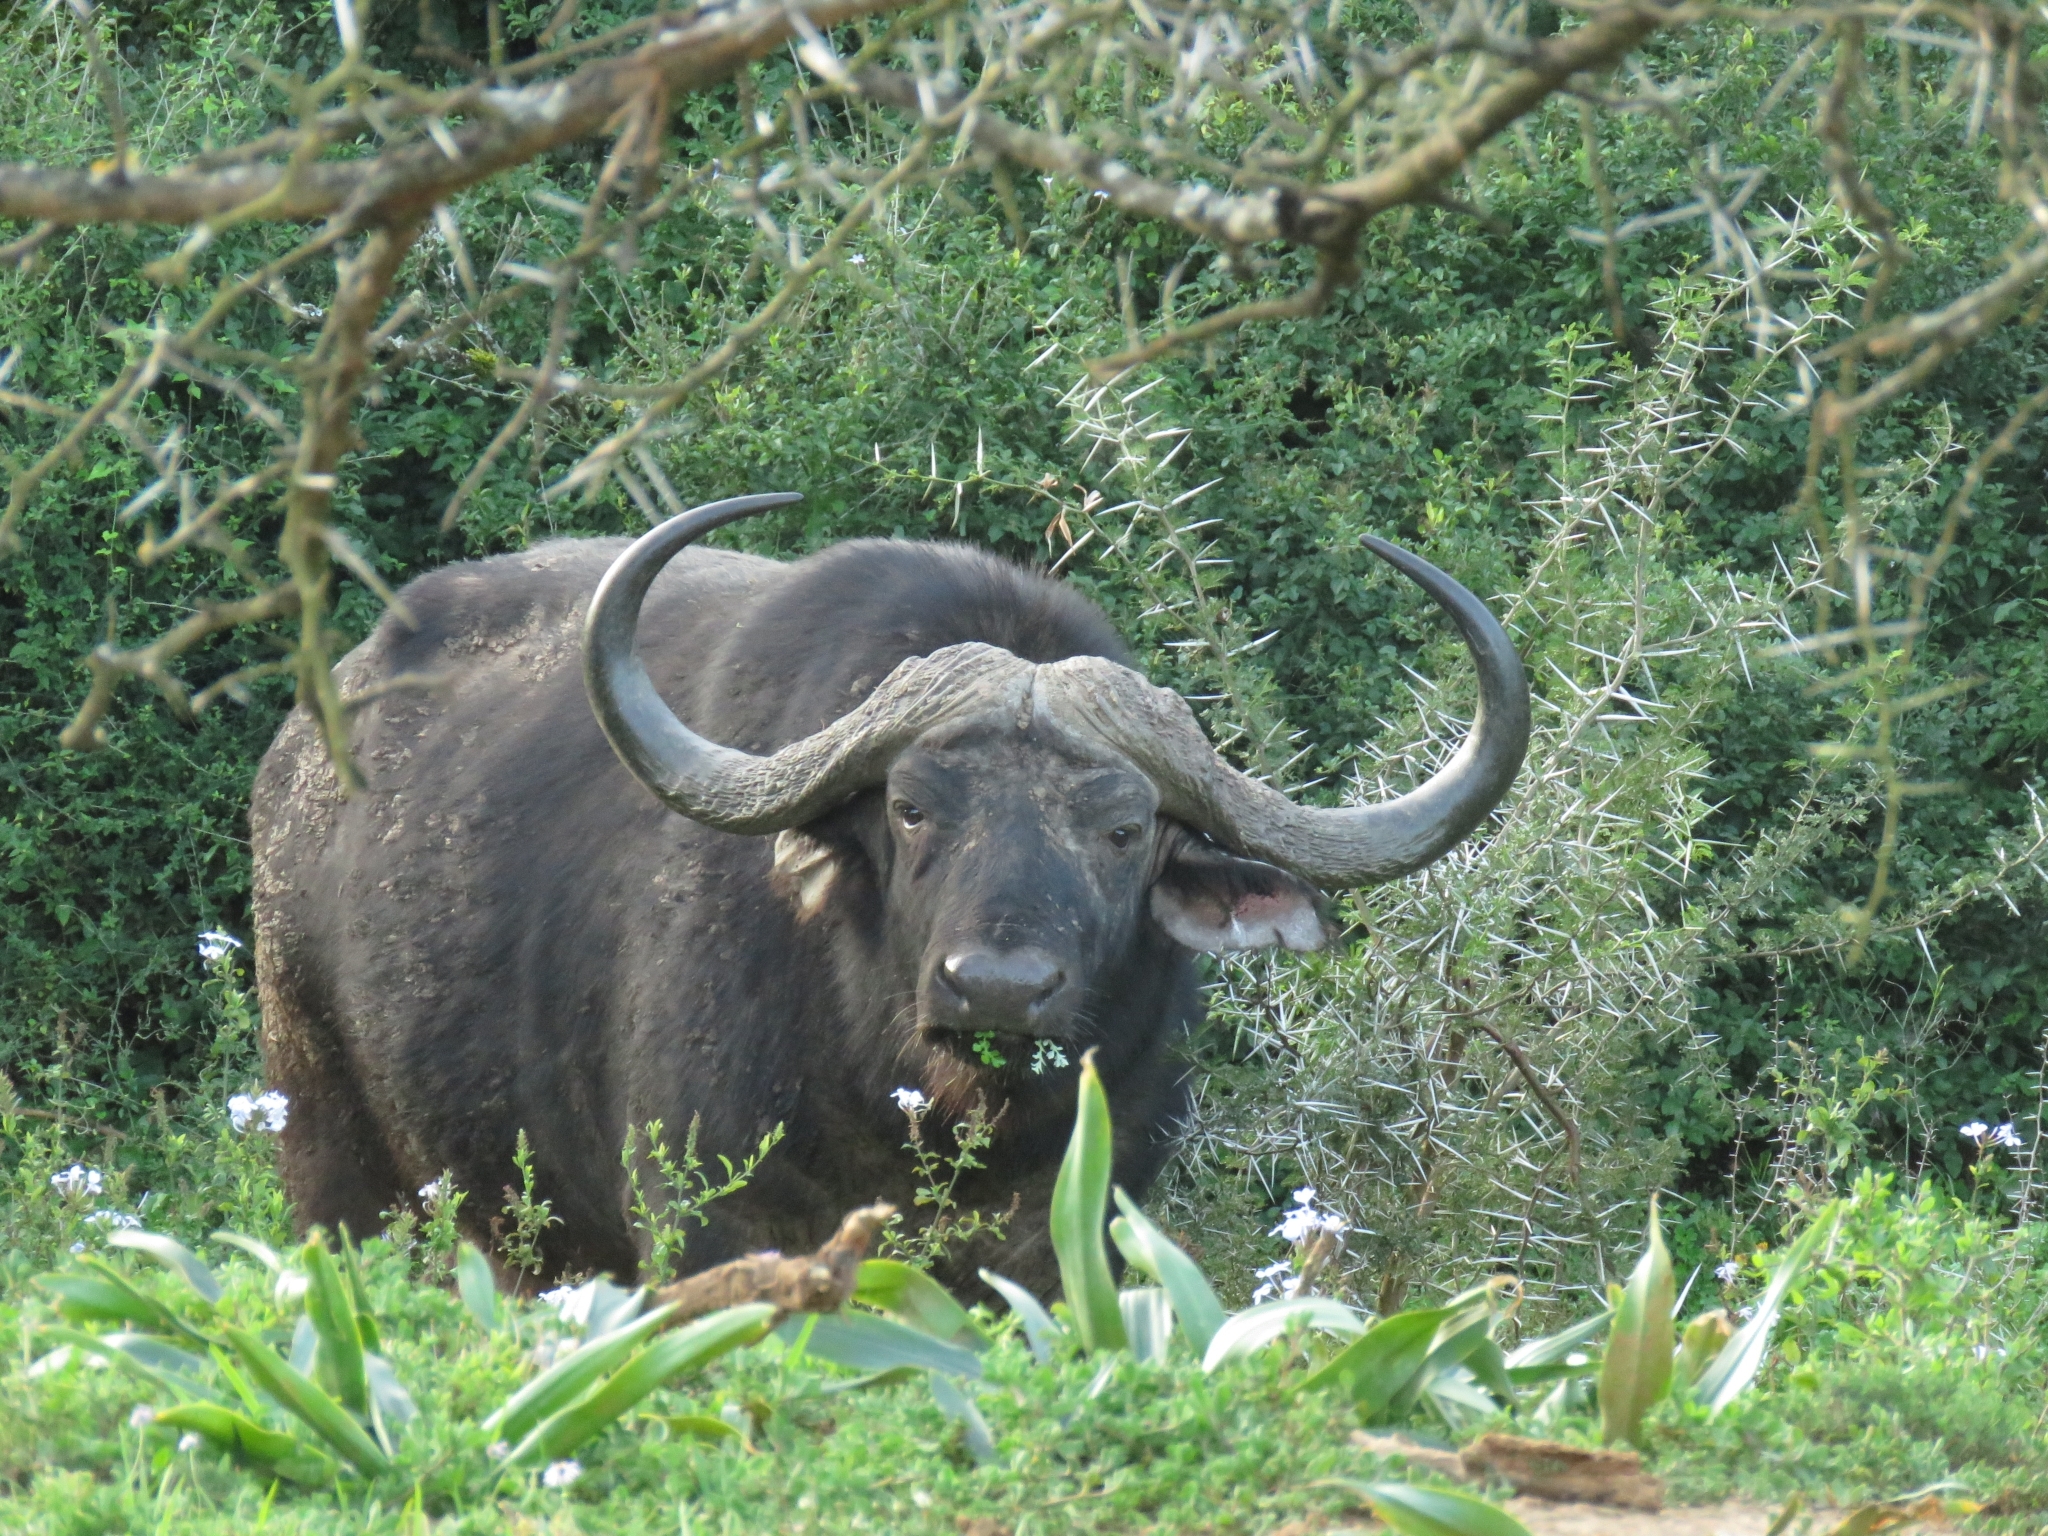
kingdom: Animalia
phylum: Chordata
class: Mammalia
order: Artiodactyla
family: Bovidae
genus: Syncerus
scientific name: Syncerus caffer
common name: African buffalo
